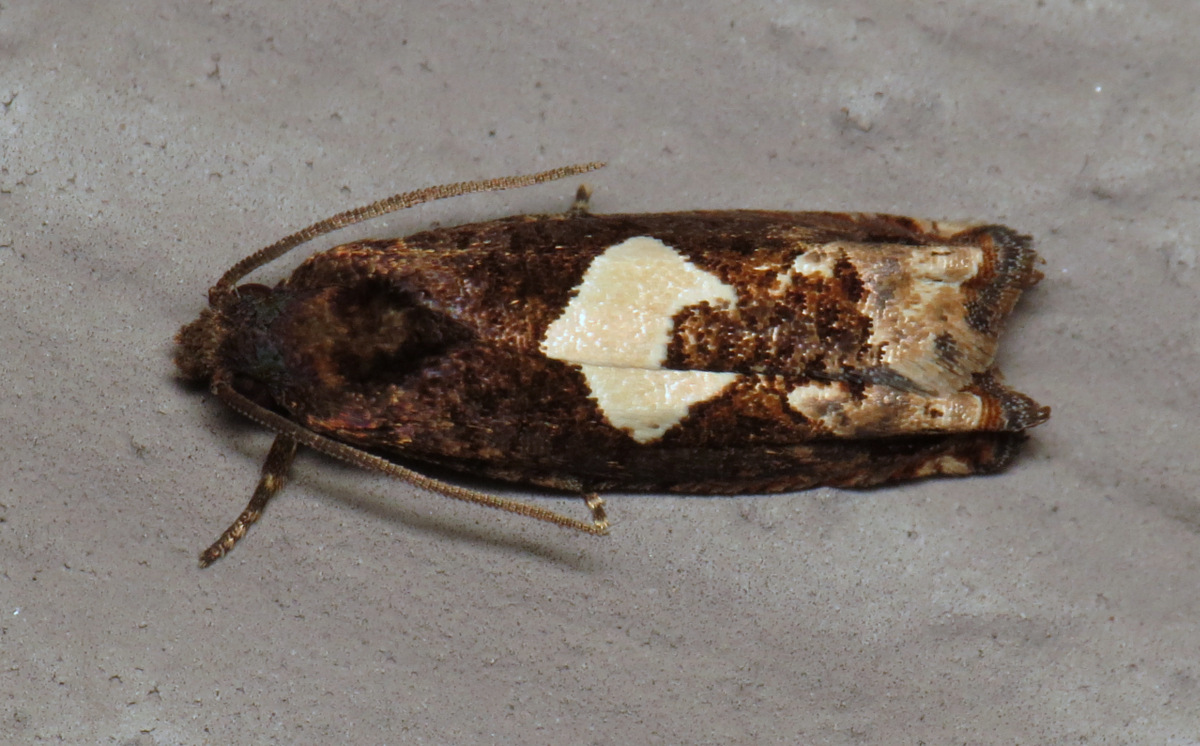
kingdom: Animalia
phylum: Arthropoda
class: Insecta
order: Lepidoptera
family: Tortricidae
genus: Epiblema
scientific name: Epiblema otiosana
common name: Bidens borer moth
